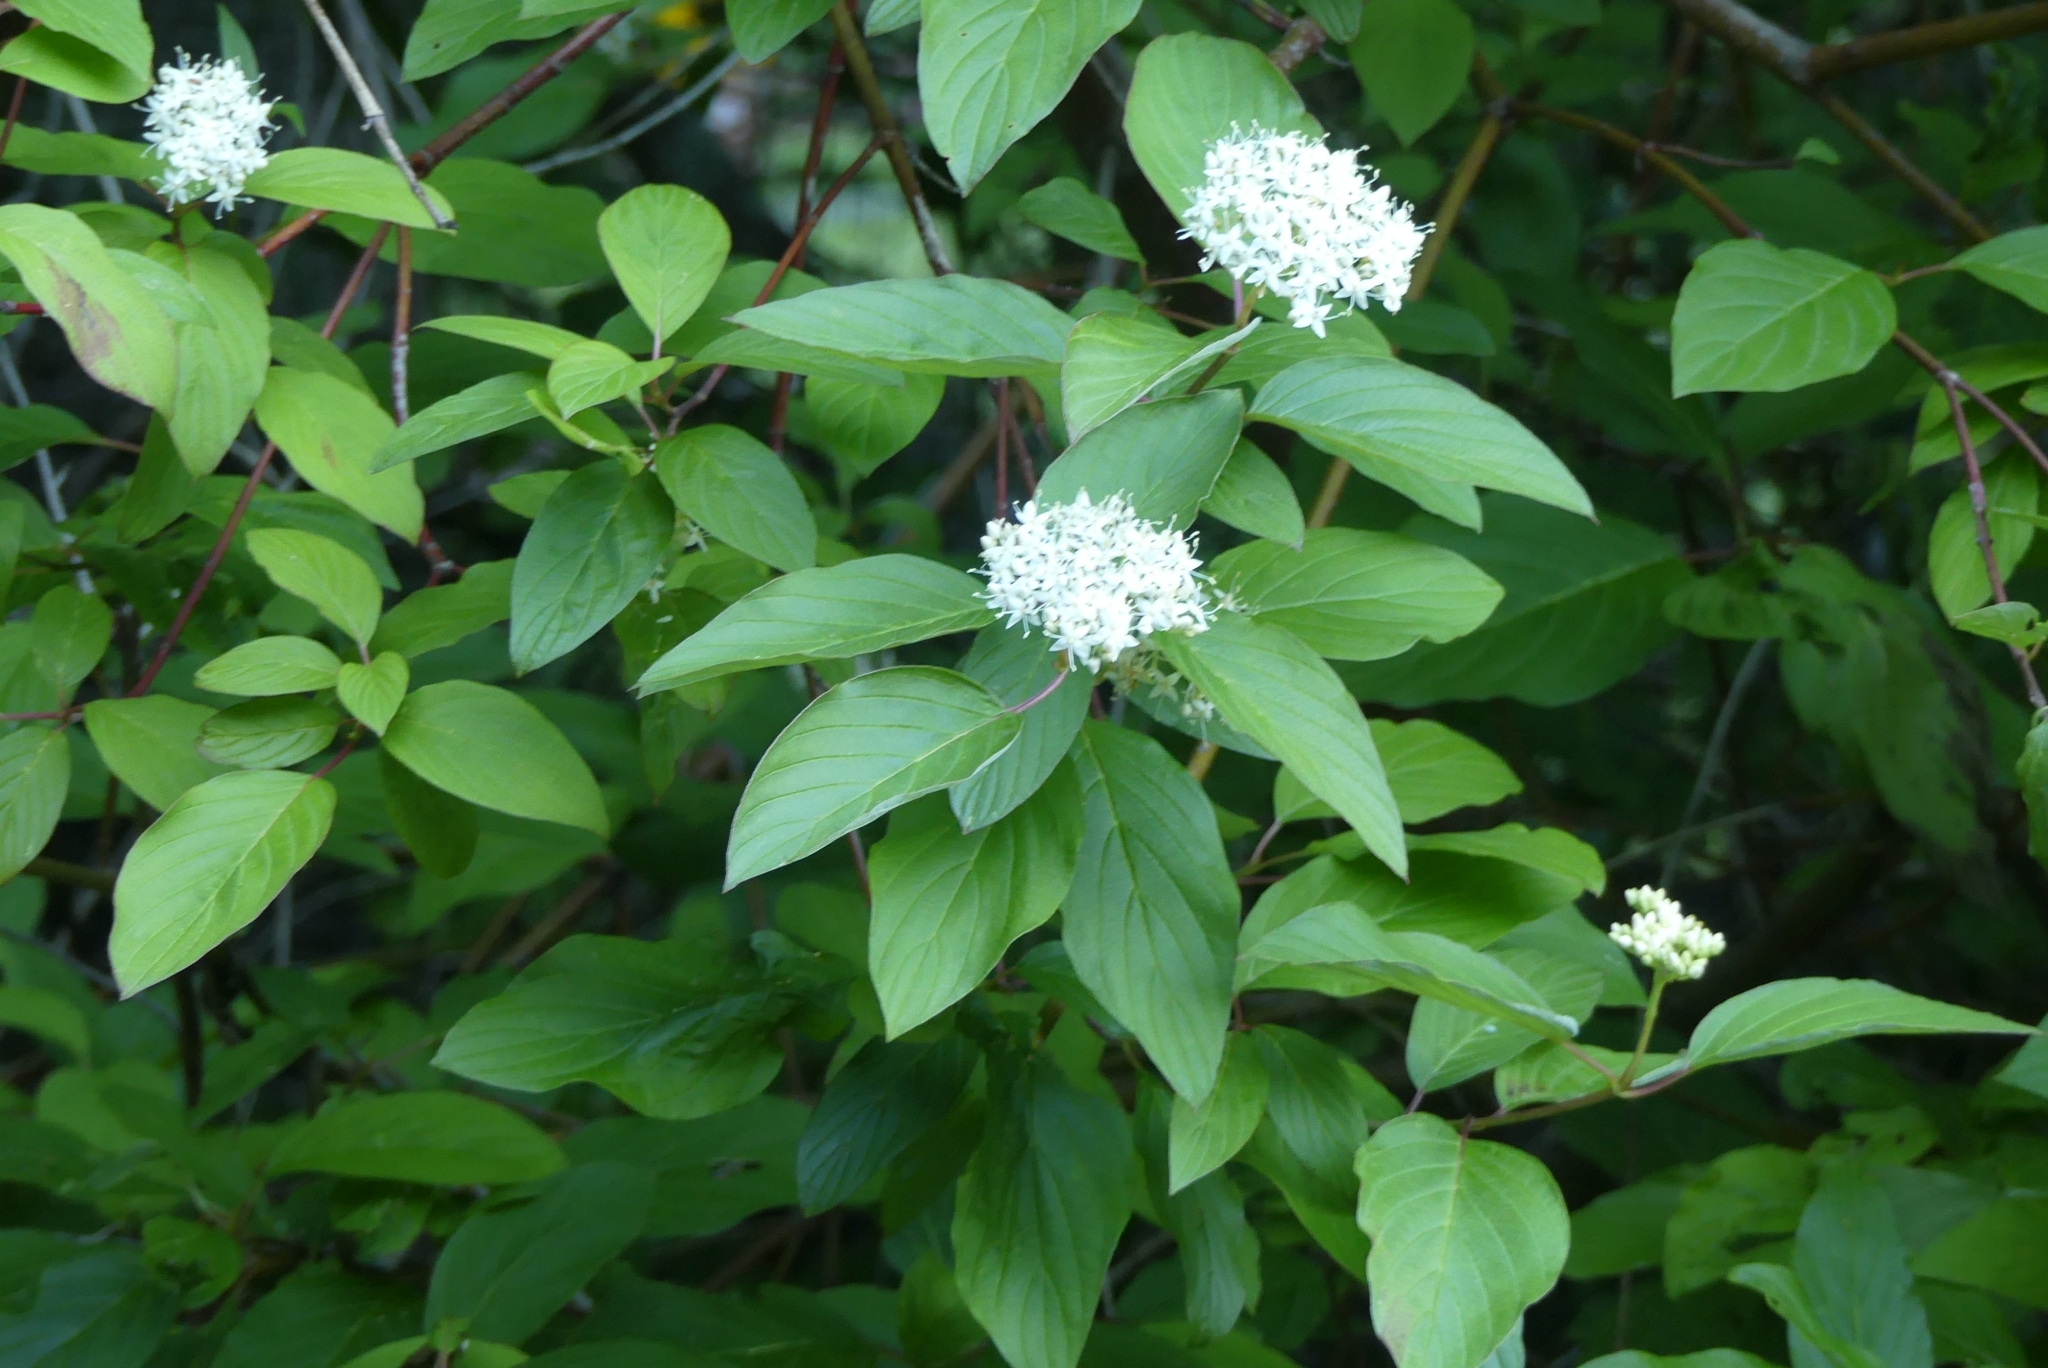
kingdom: Plantae
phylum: Tracheophyta
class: Magnoliopsida
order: Cornales
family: Cornaceae
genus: Cornus
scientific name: Cornus sericea
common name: Red-osier dogwood
